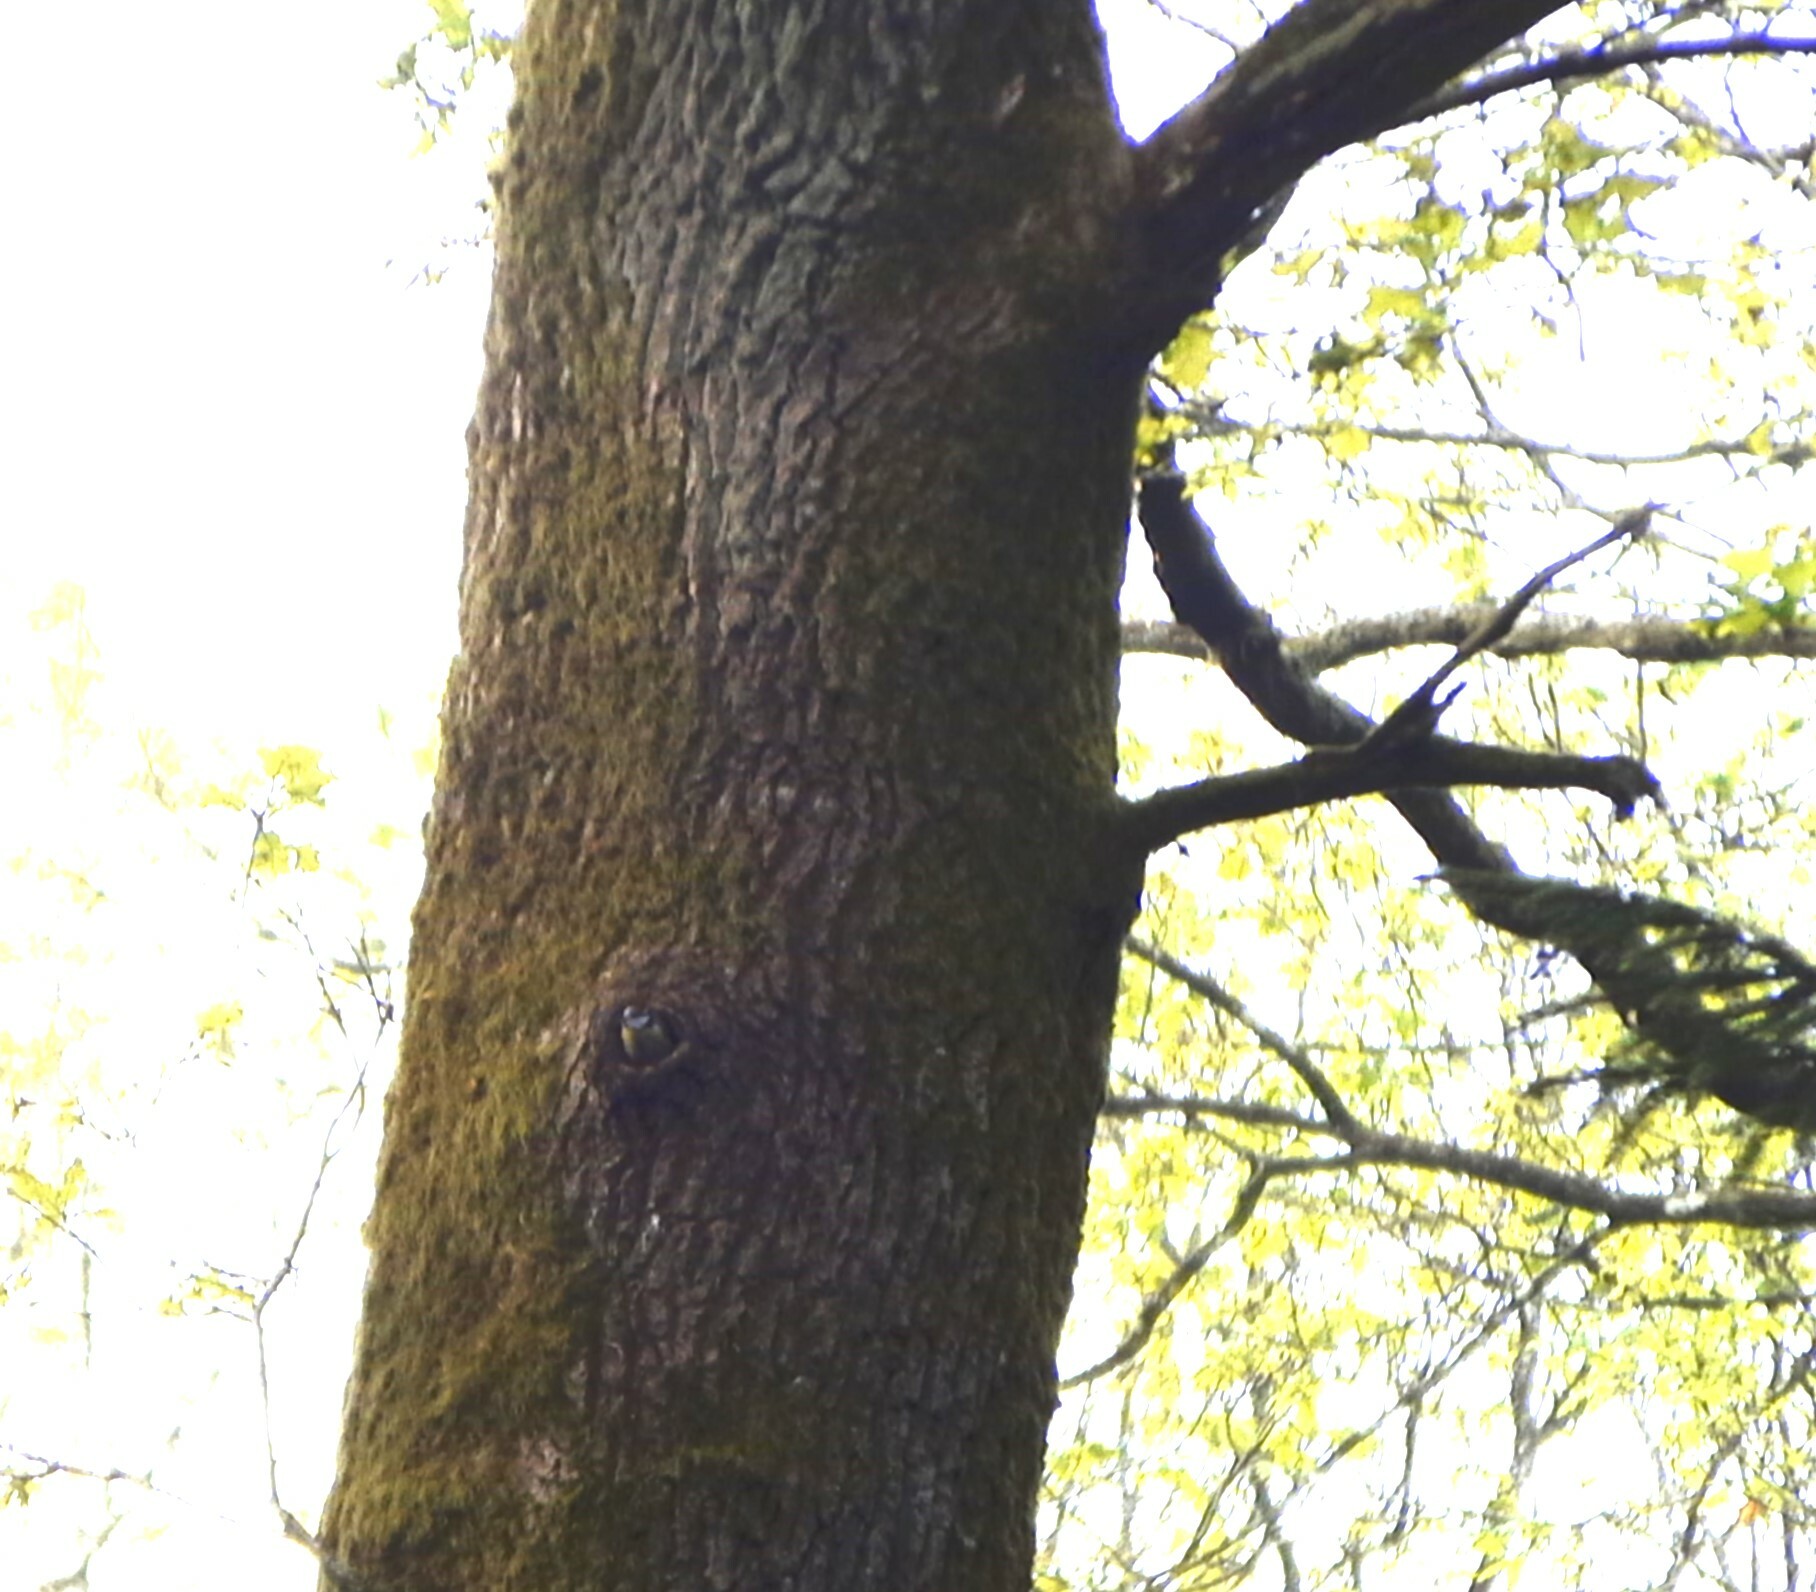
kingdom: Animalia
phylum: Chordata
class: Aves
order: Passeriformes
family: Paridae
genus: Cyanistes
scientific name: Cyanistes caeruleus
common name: Eurasian blue tit
